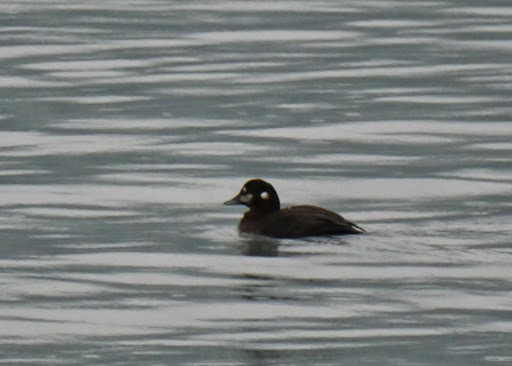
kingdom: Animalia
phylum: Chordata
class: Aves
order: Anseriformes
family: Anatidae
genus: Histrionicus
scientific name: Histrionicus histrionicus
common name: Harlequin duck
